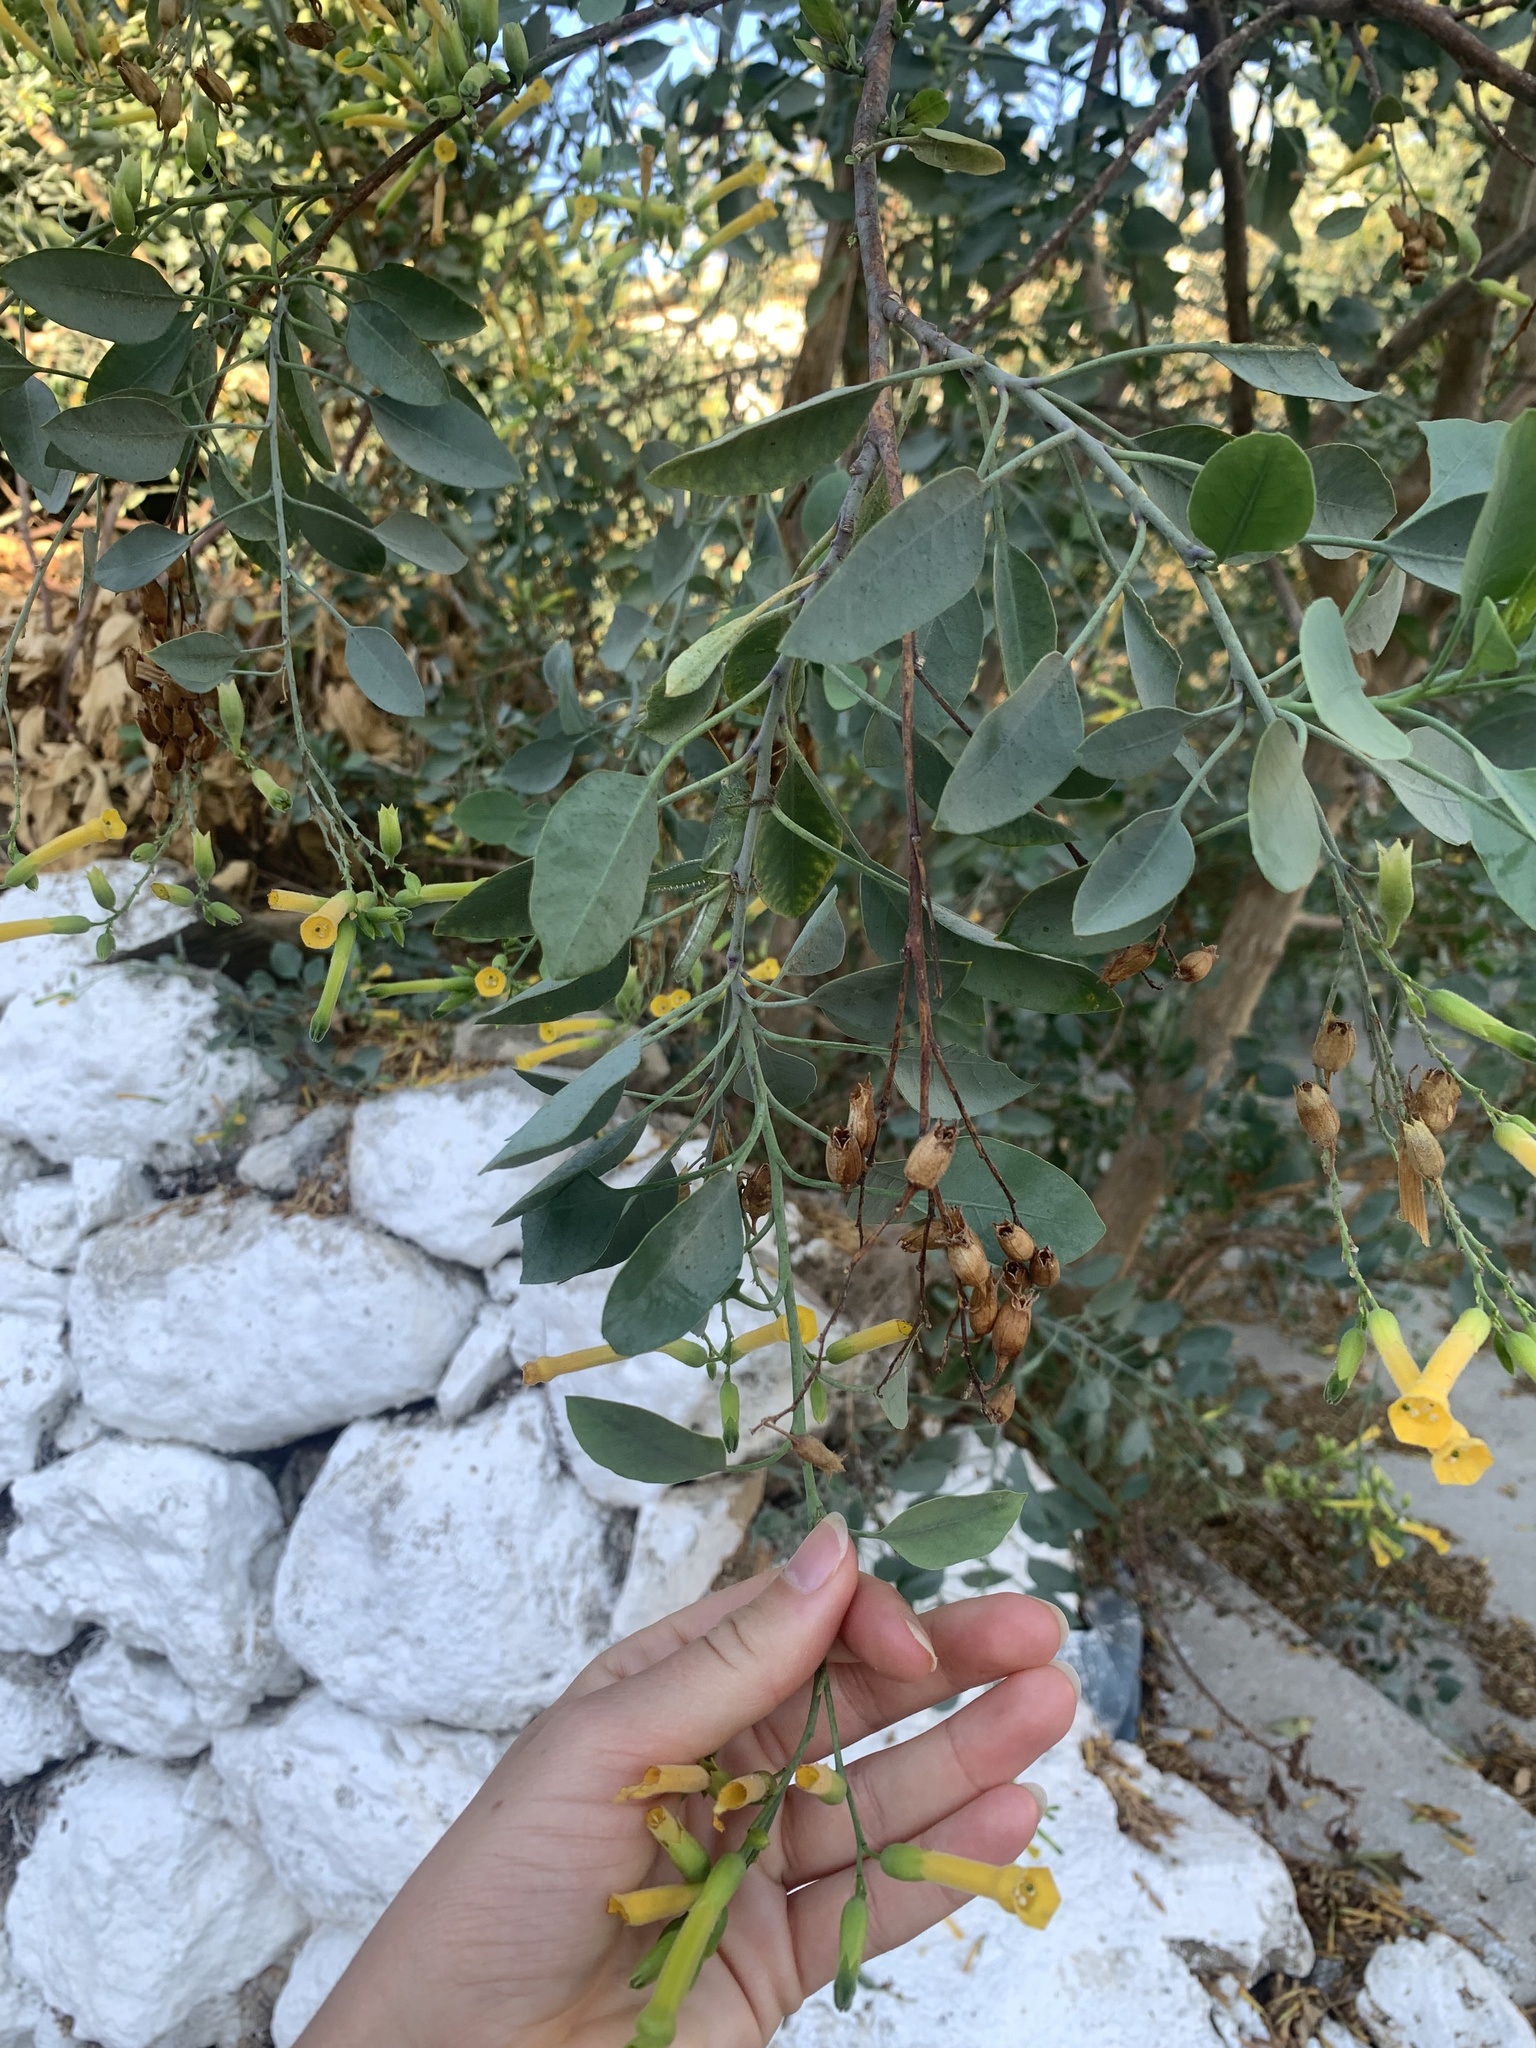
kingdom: Plantae
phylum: Tracheophyta
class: Magnoliopsida
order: Solanales
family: Solanaceae
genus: Nicotiana
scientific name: Nicotiana glauca
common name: Tree tobacco
